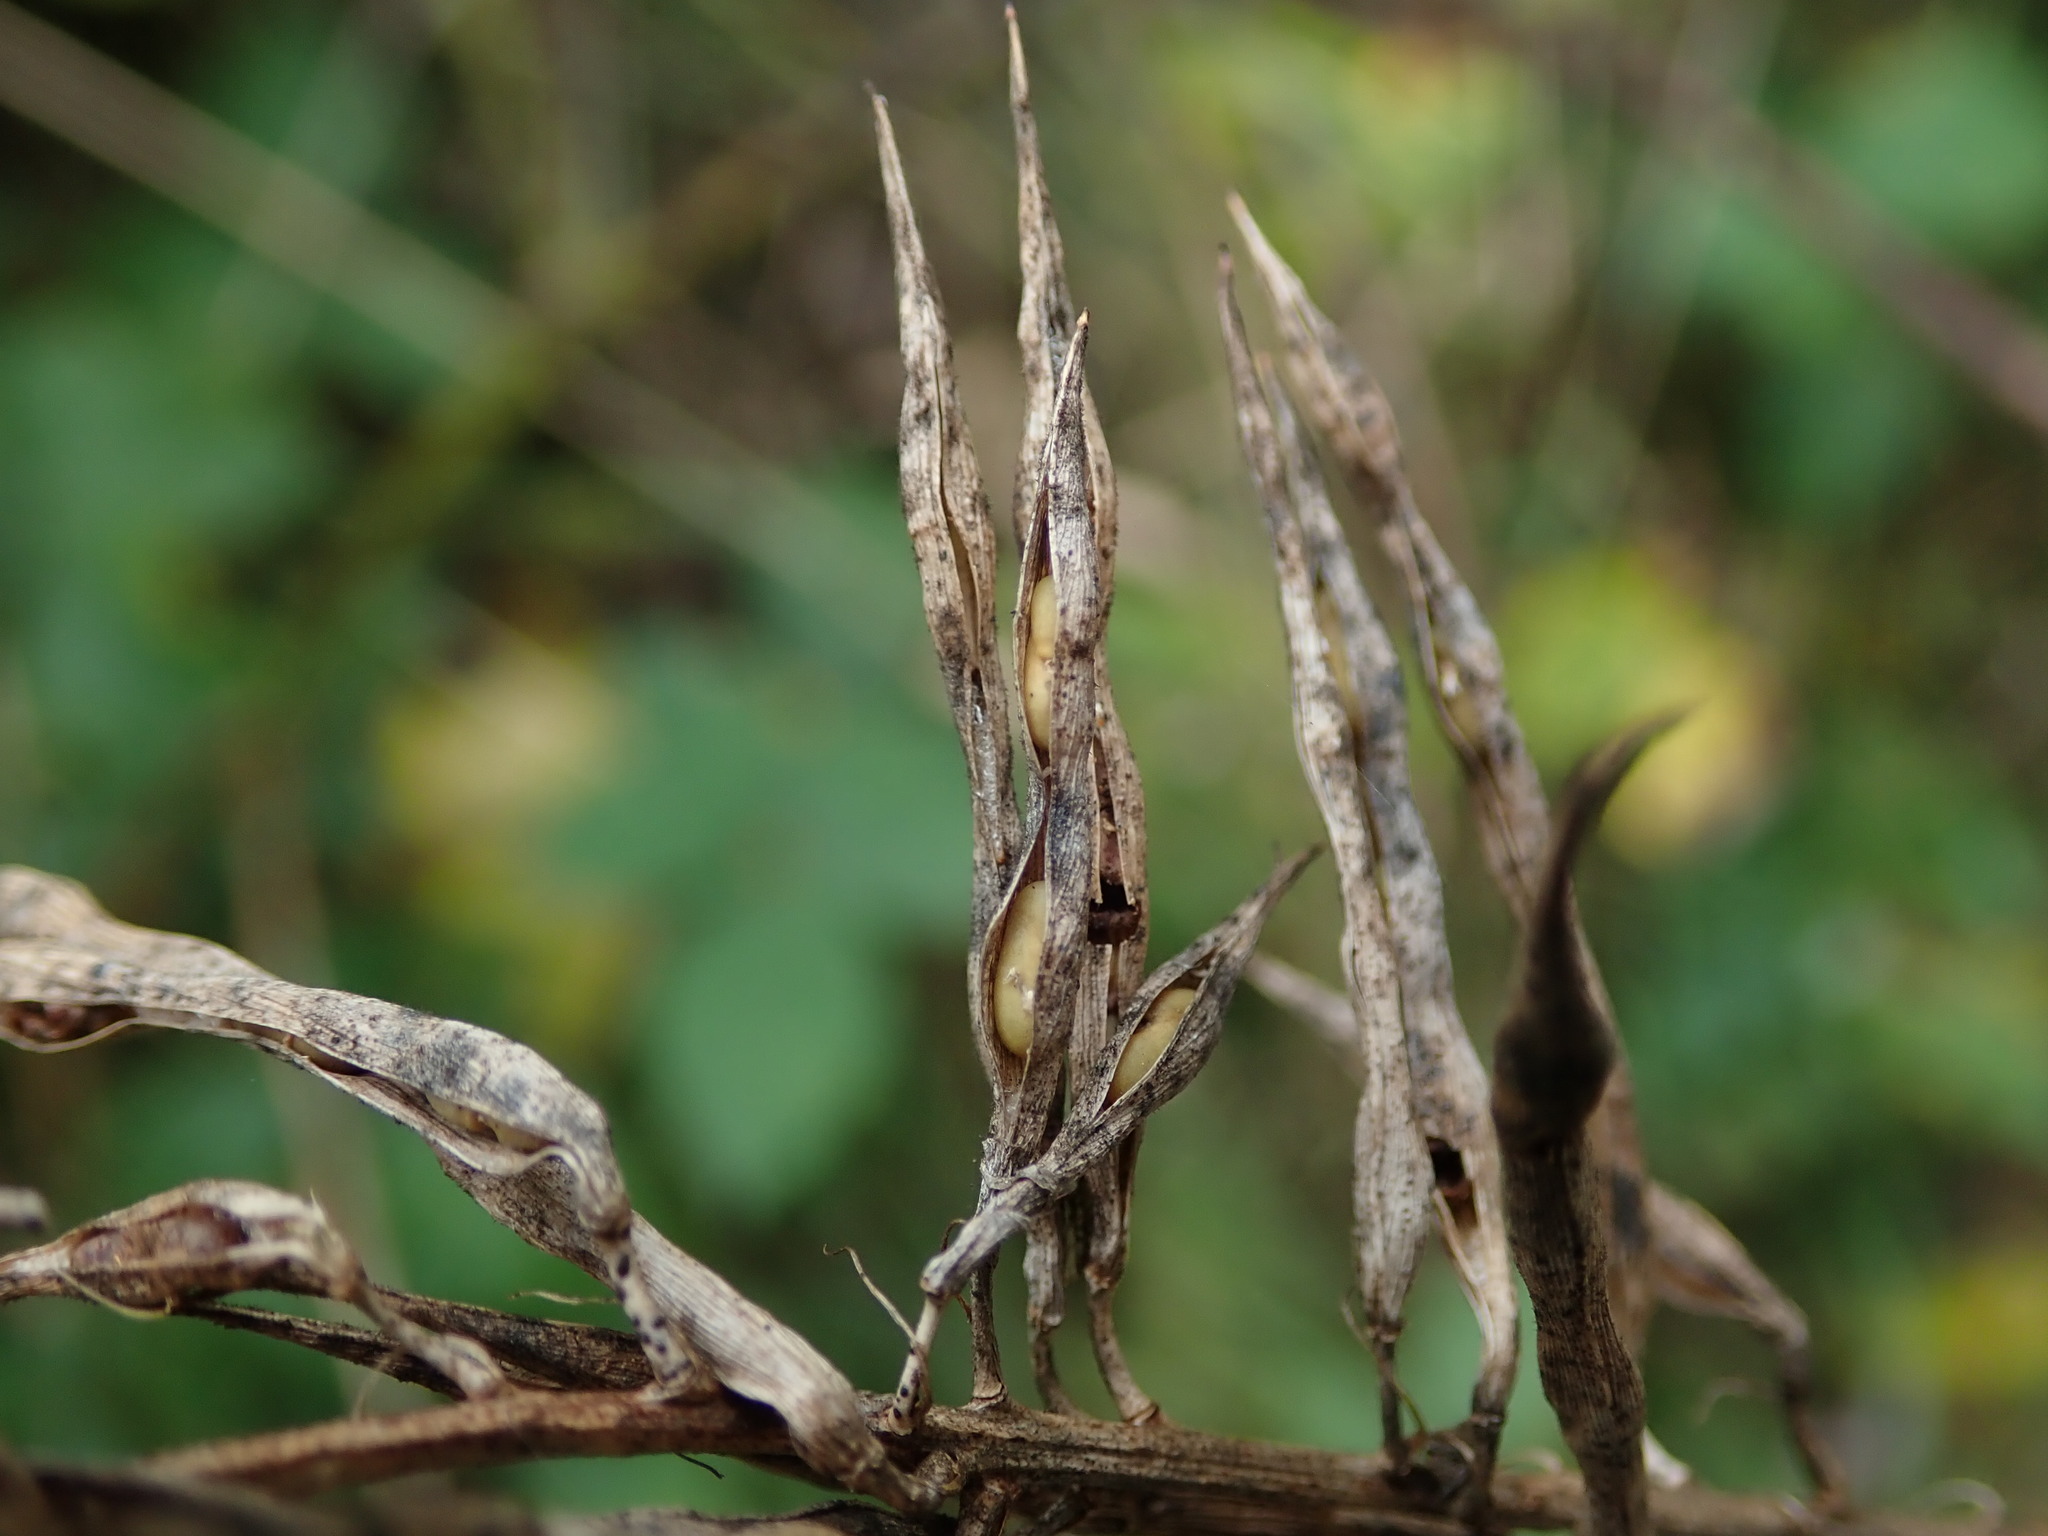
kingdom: Plantae
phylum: Tracheophyta
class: Magnoliopsida
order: Fabales
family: Fabaceae
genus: Galega
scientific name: Galega officinalis
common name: Goat's-rue
